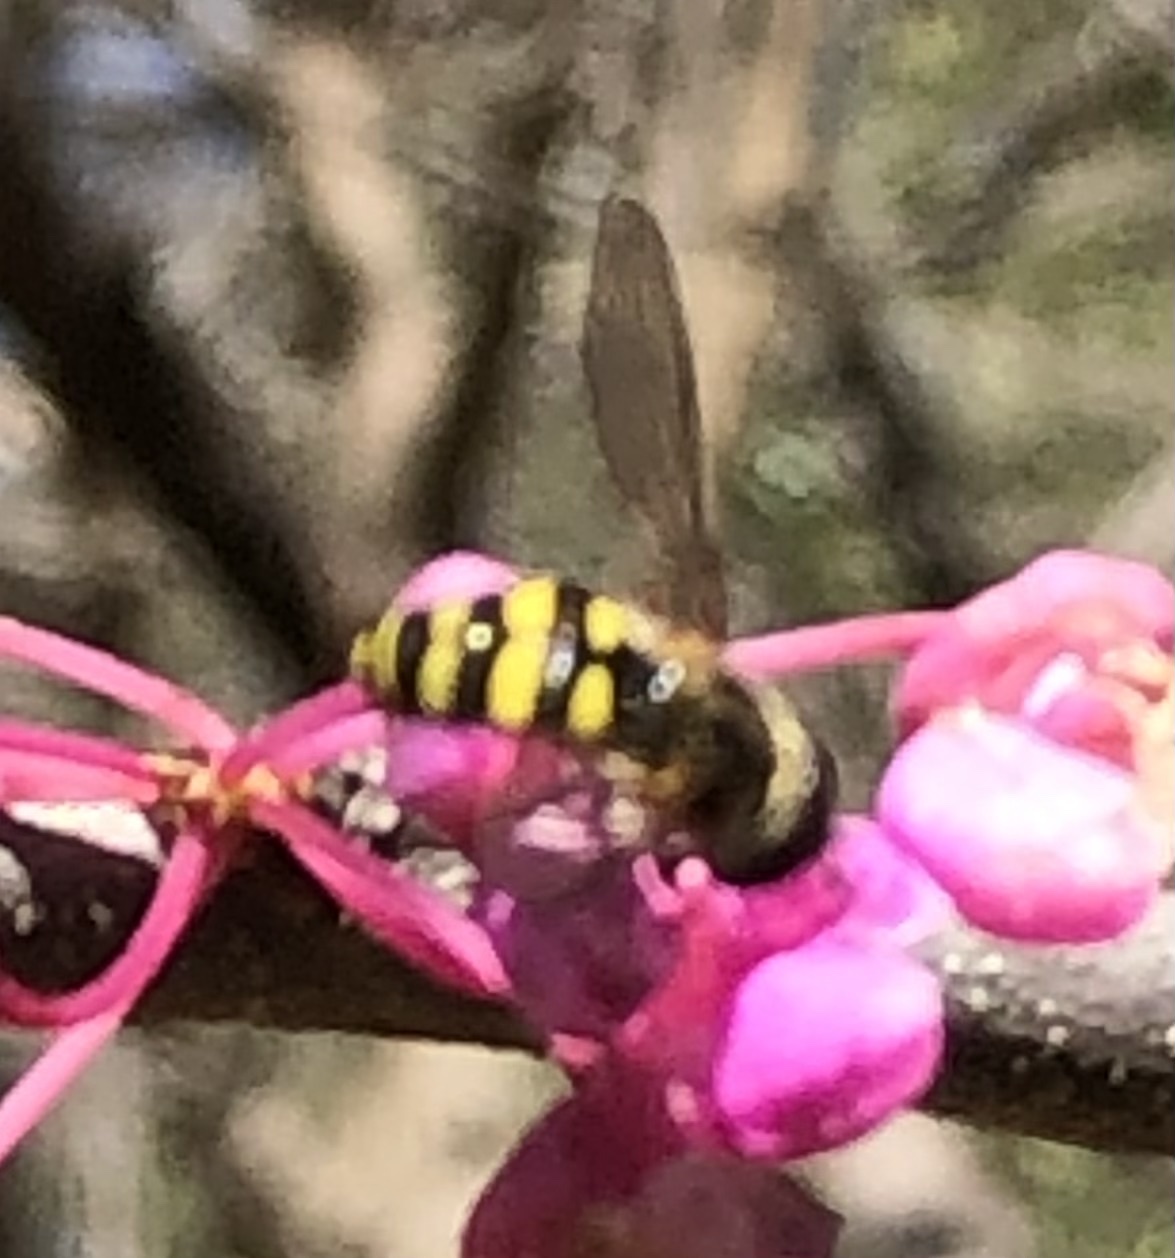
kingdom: Animalia
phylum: Arthropoda
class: Insecta
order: Diptera
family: Syrphidae
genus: Eupeodes
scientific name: Eupeodes
